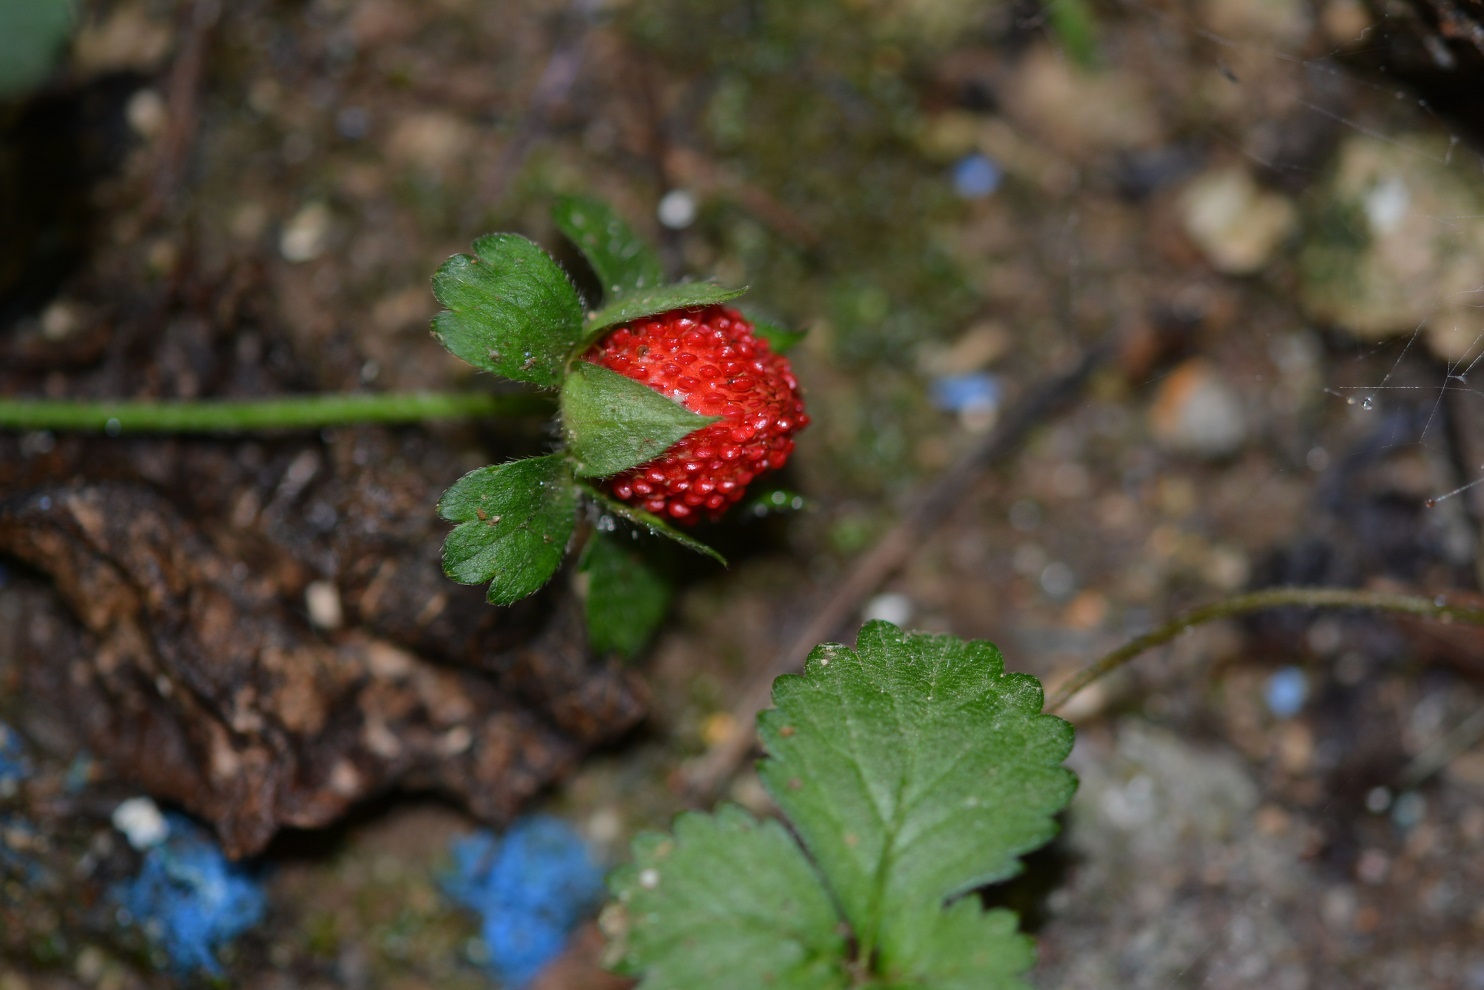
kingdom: Plantae
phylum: Tracheophyta
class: Magnoliopsida
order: Rosales
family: Rosaceae
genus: Potentilla
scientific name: Potentilla indica
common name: Yellow-flowered strawberry
